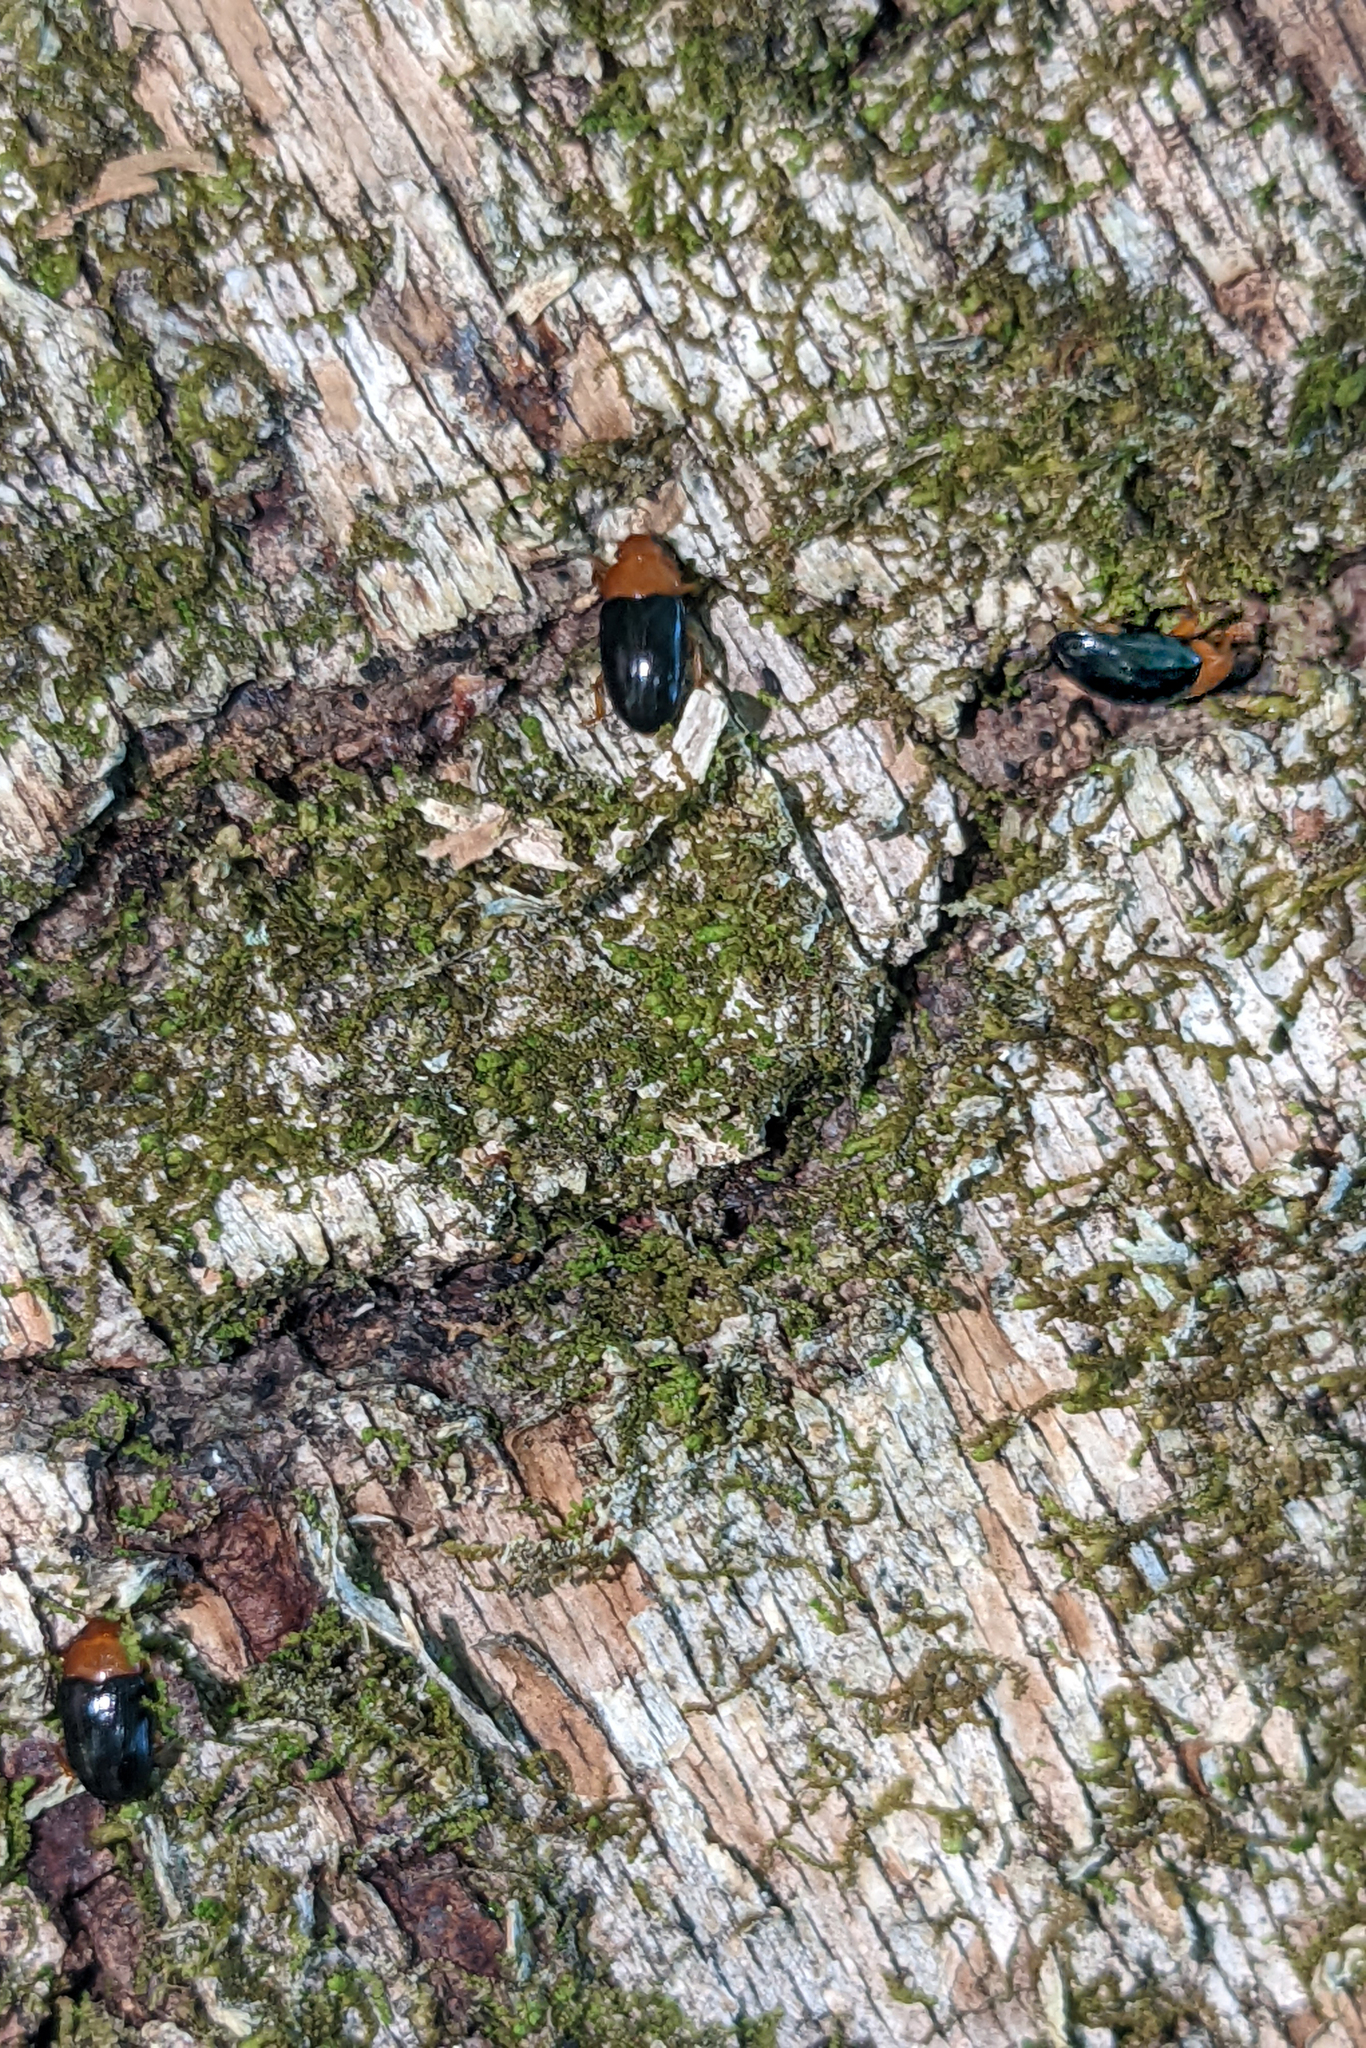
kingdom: Animalia
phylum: Arthropoda
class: Insecta
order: Coleoptera
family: Erotylidae
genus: Triplax
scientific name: Triplax thoracica
